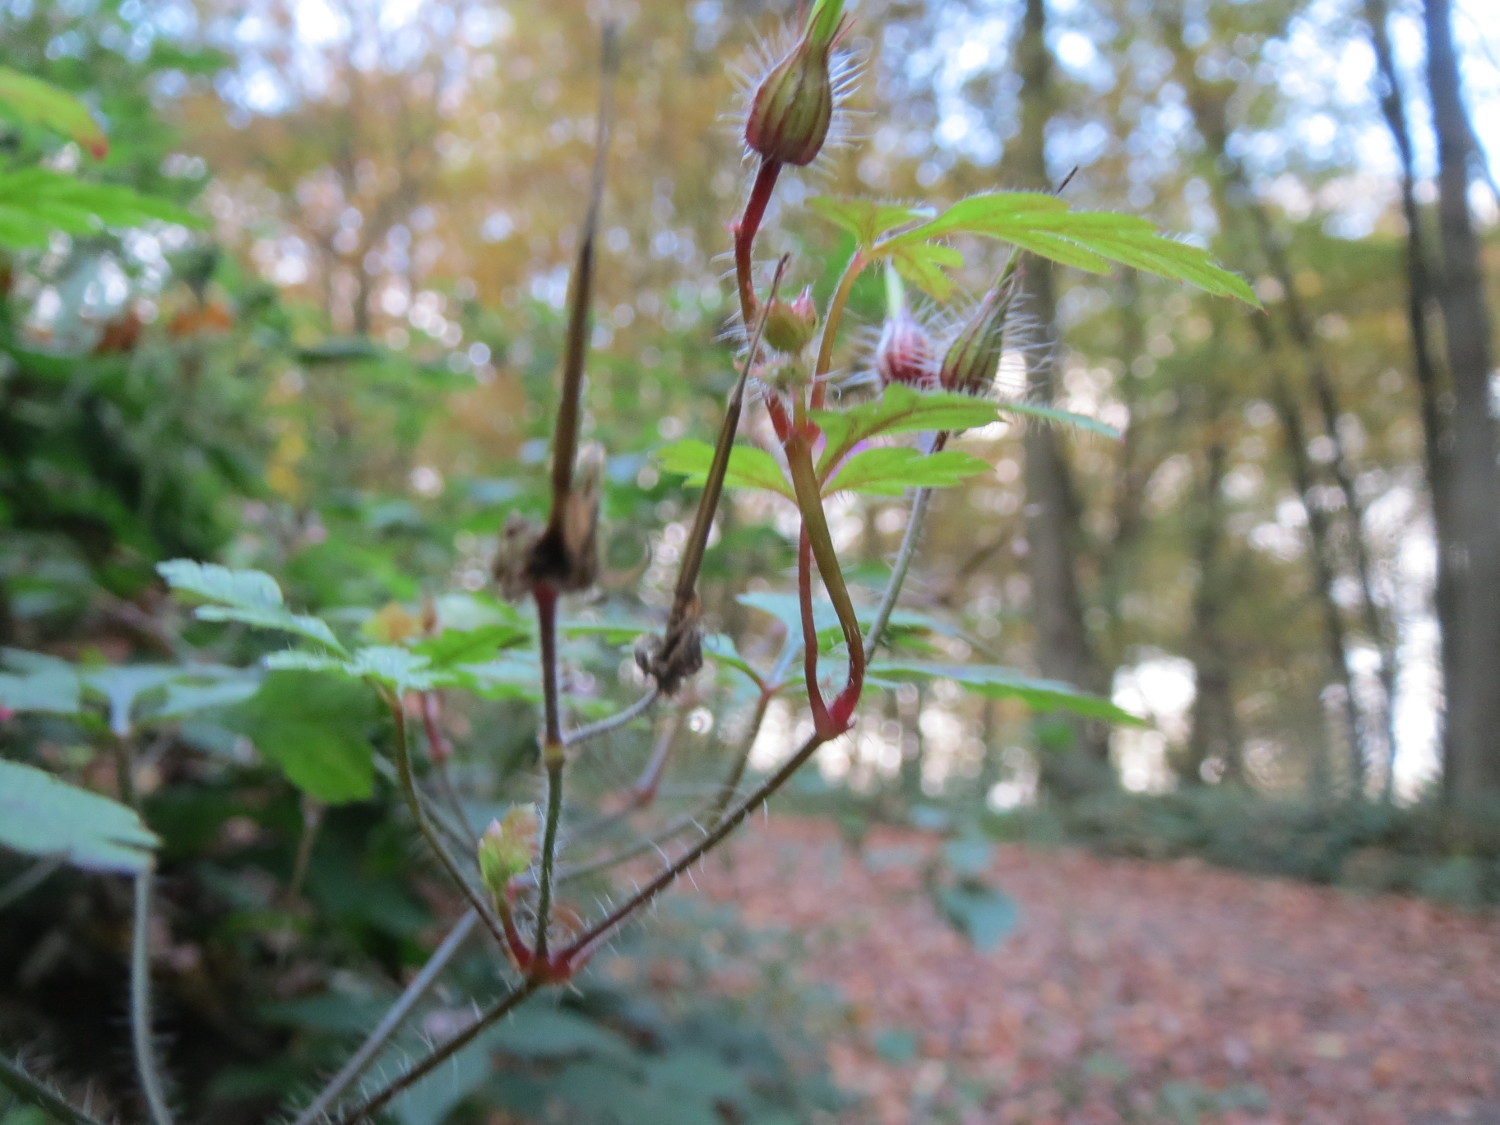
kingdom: Plantae
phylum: Tracheophyta
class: Magnoliopsida
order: Geraniales
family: Geraniaceae
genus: Geranium
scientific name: Geranium robertianum
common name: Herb-robert
